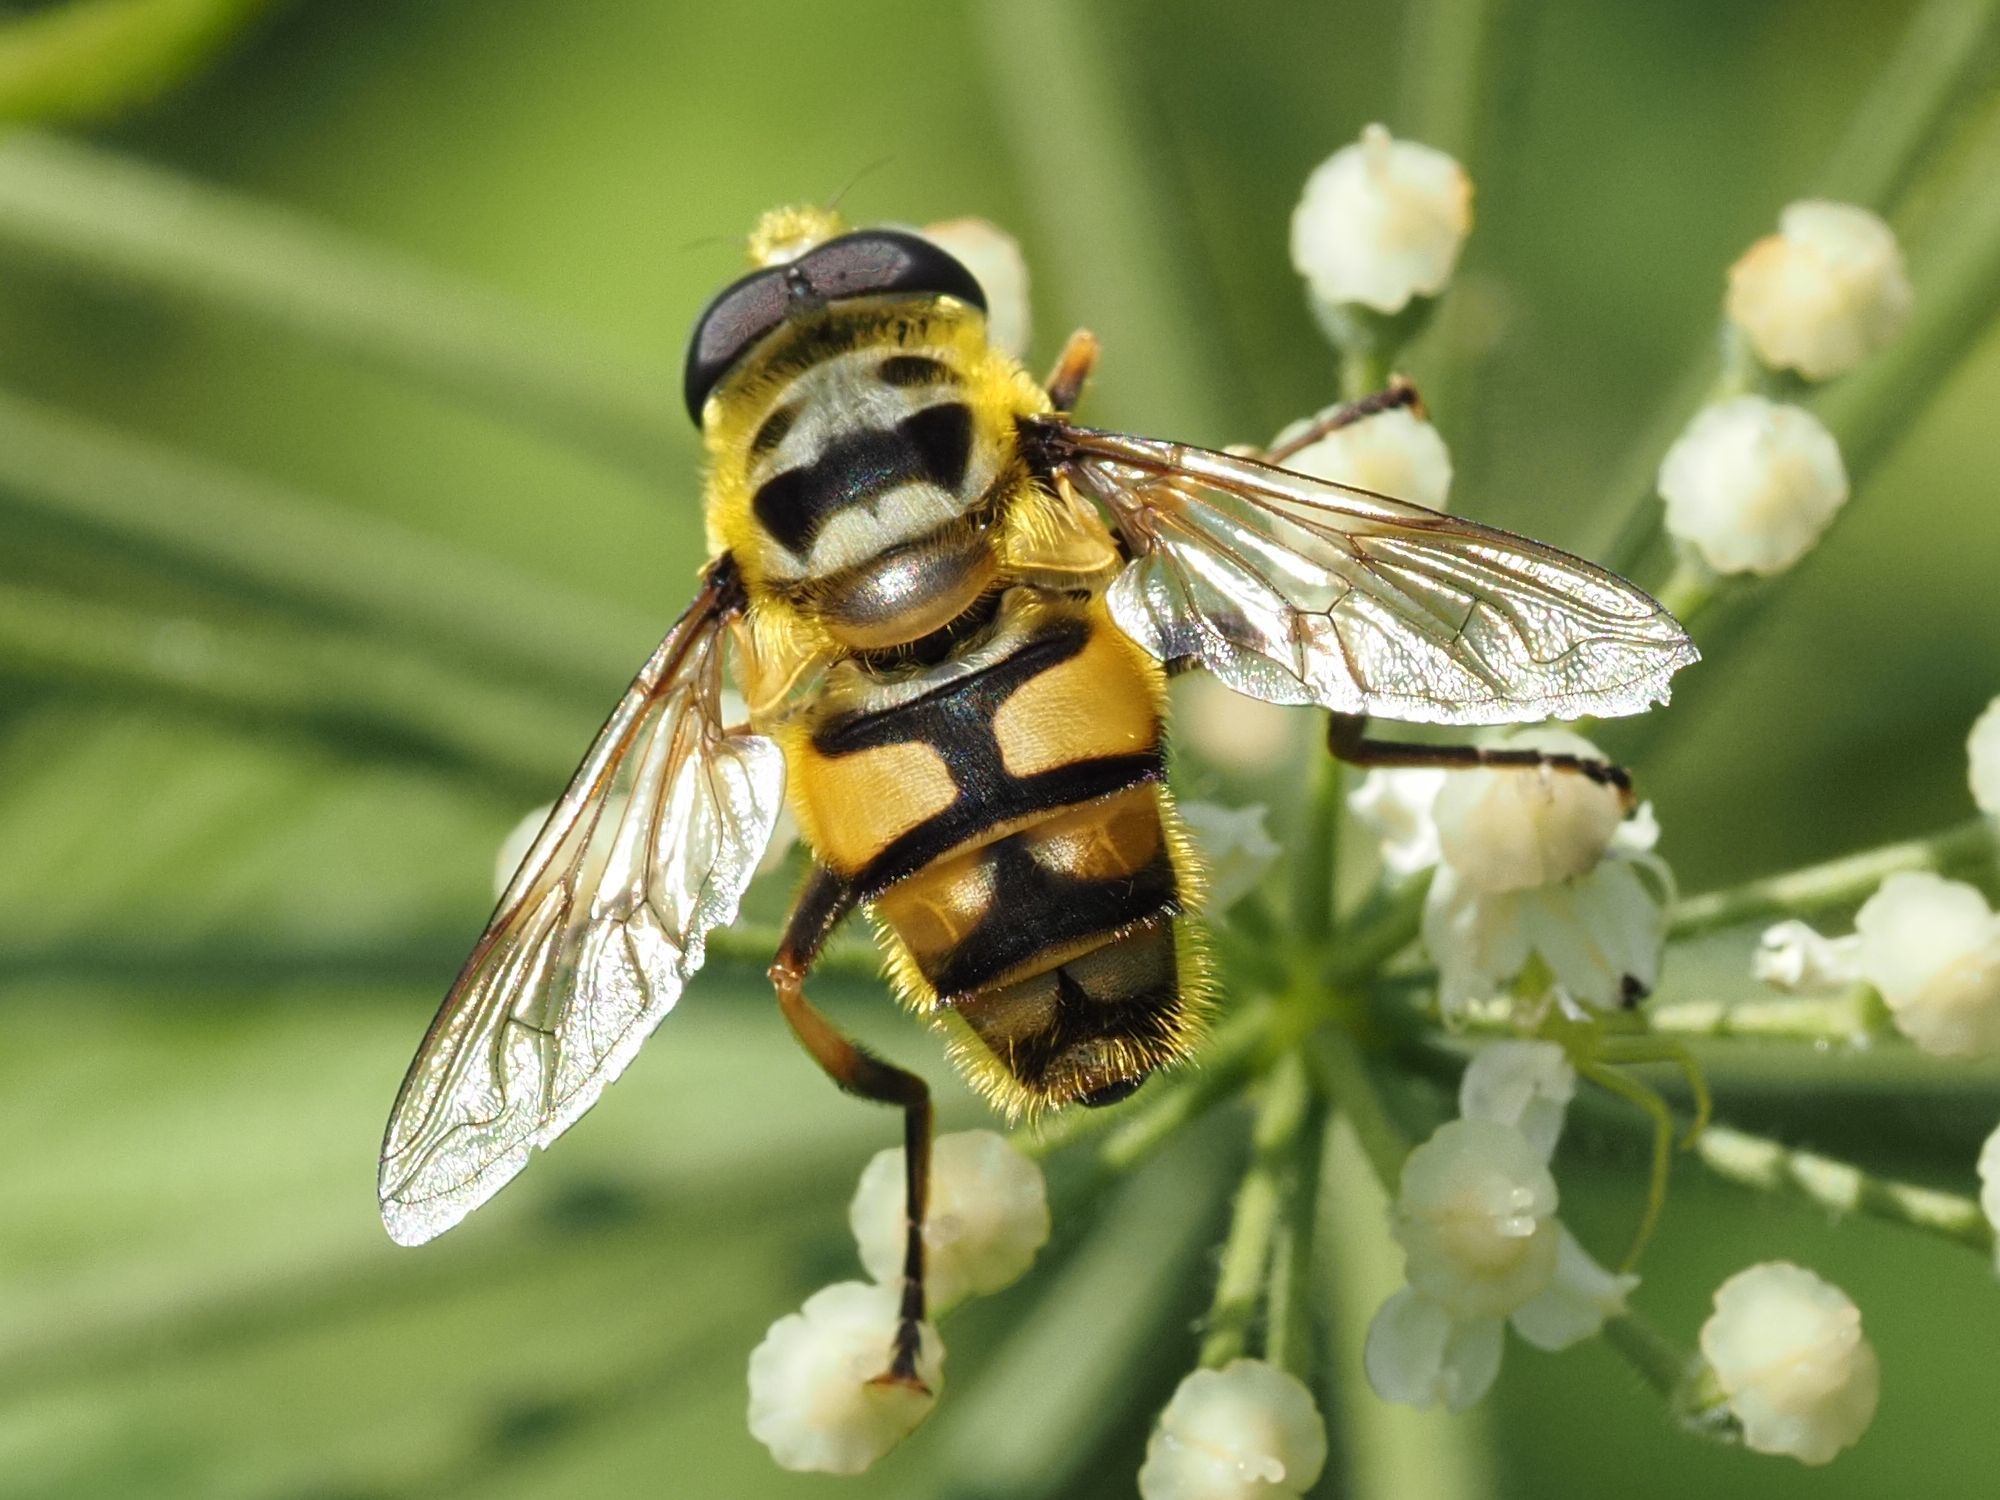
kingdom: Animalia
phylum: Arthropoda
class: Insecta
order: Diptera
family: Syrphidae
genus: Myathropa
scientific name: Myathropa florea
